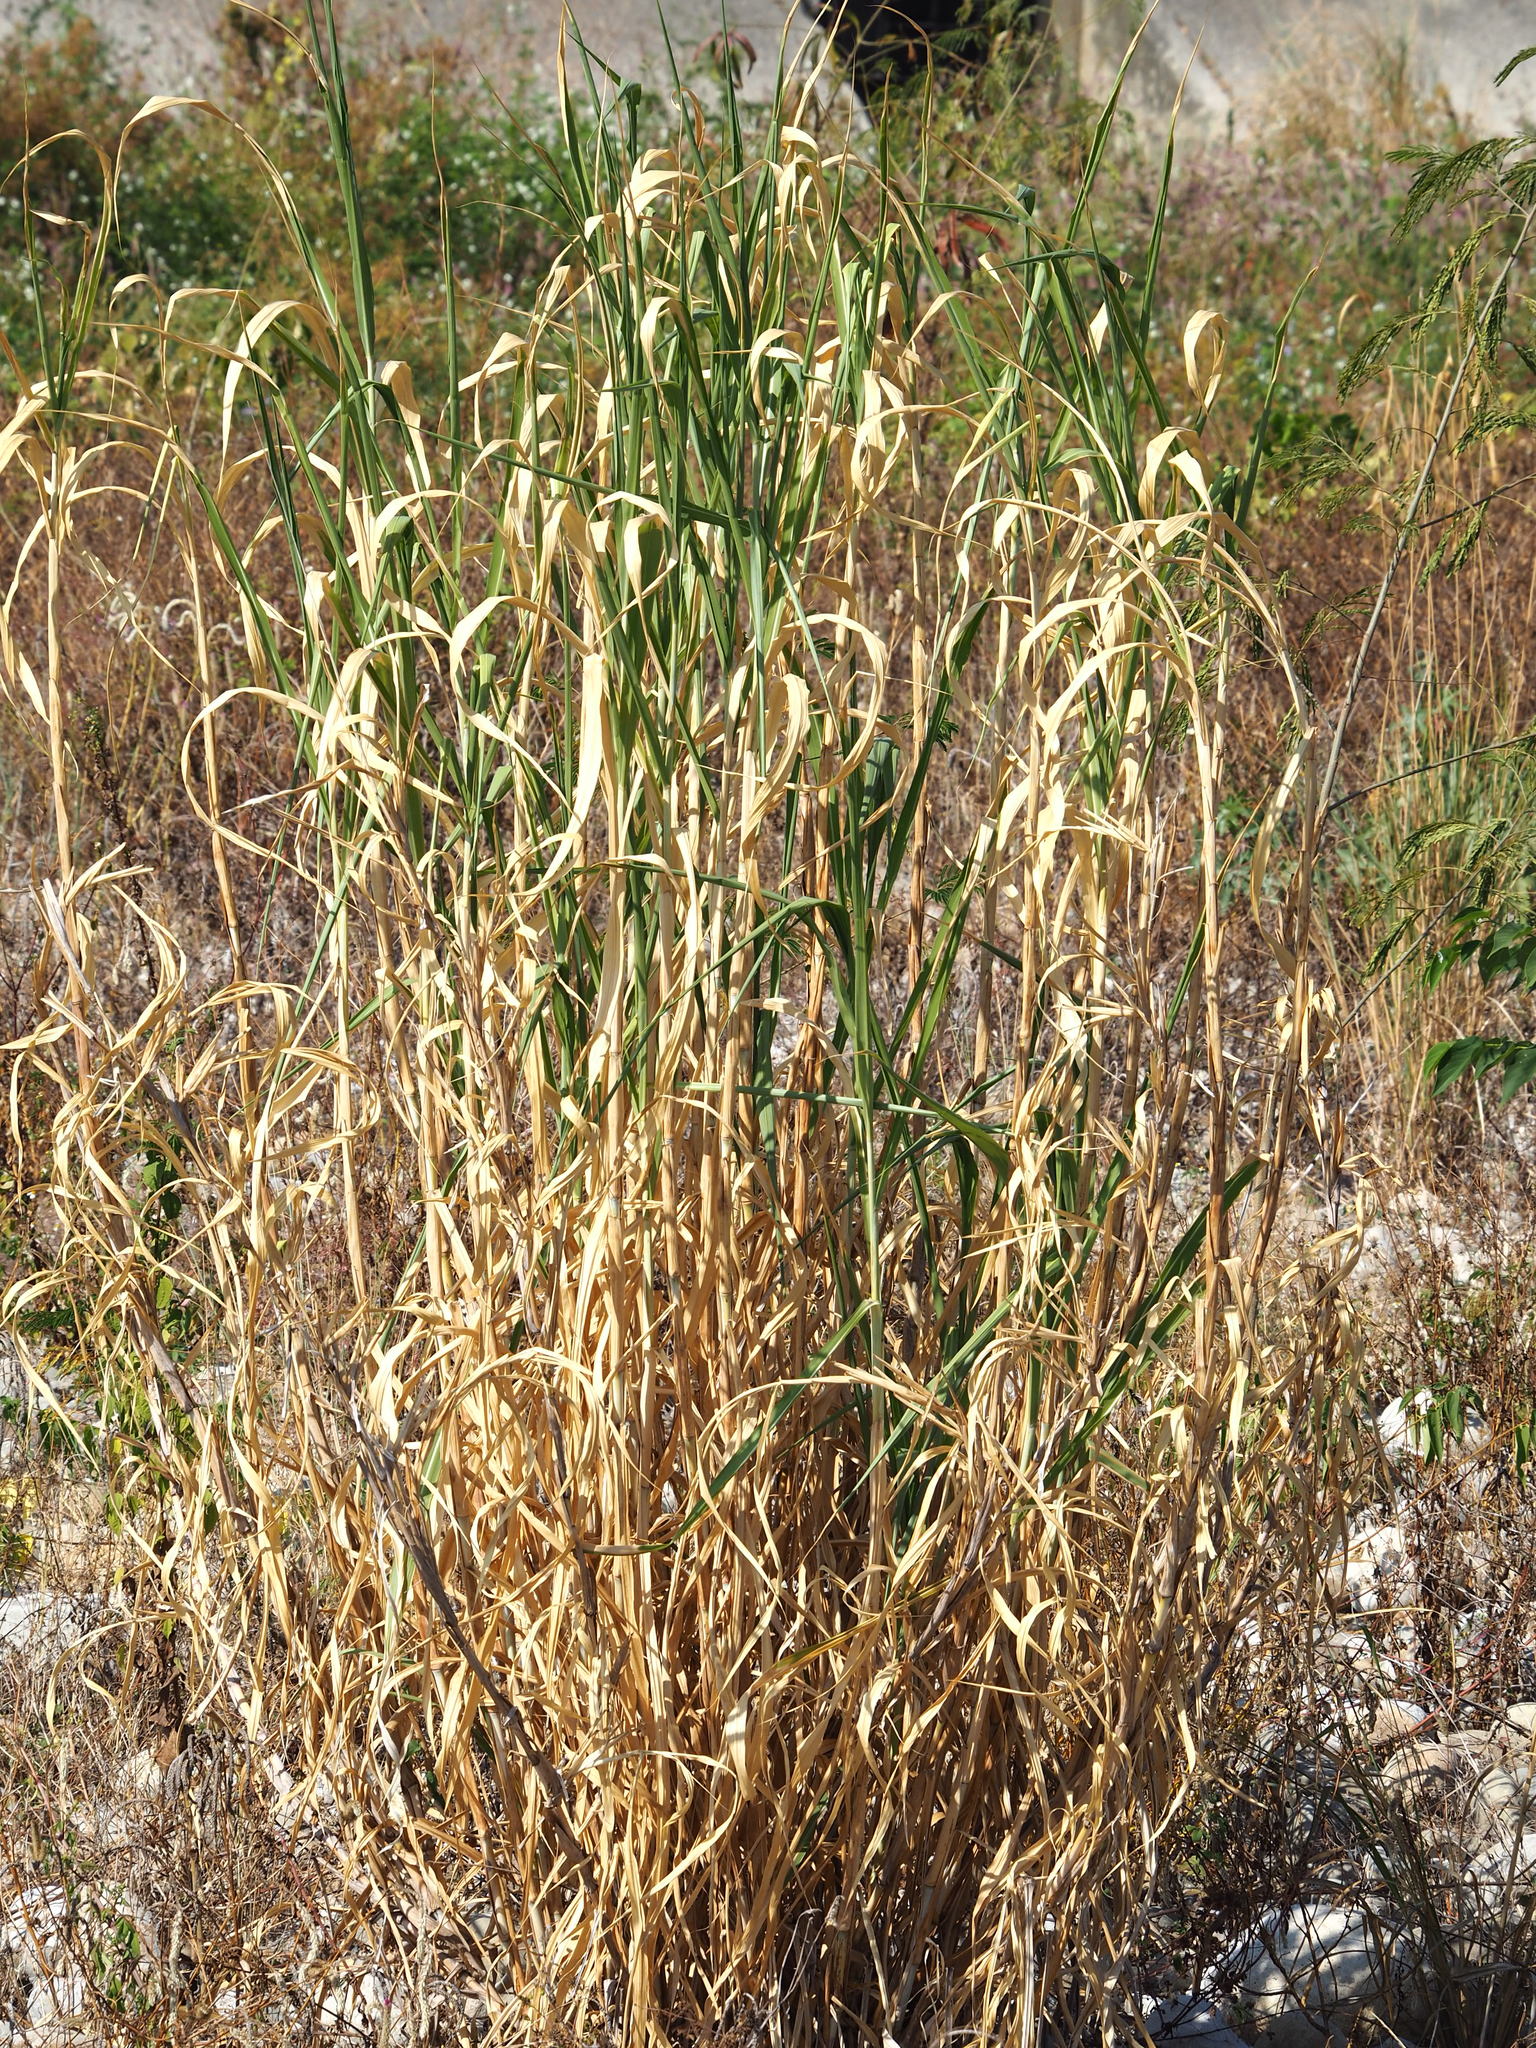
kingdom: Plantae
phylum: Tracheophyta
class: Liliopsida
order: Poales
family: Poaceae
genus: Cenchrus
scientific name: Cenchrus purpureus
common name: Elephant grass
